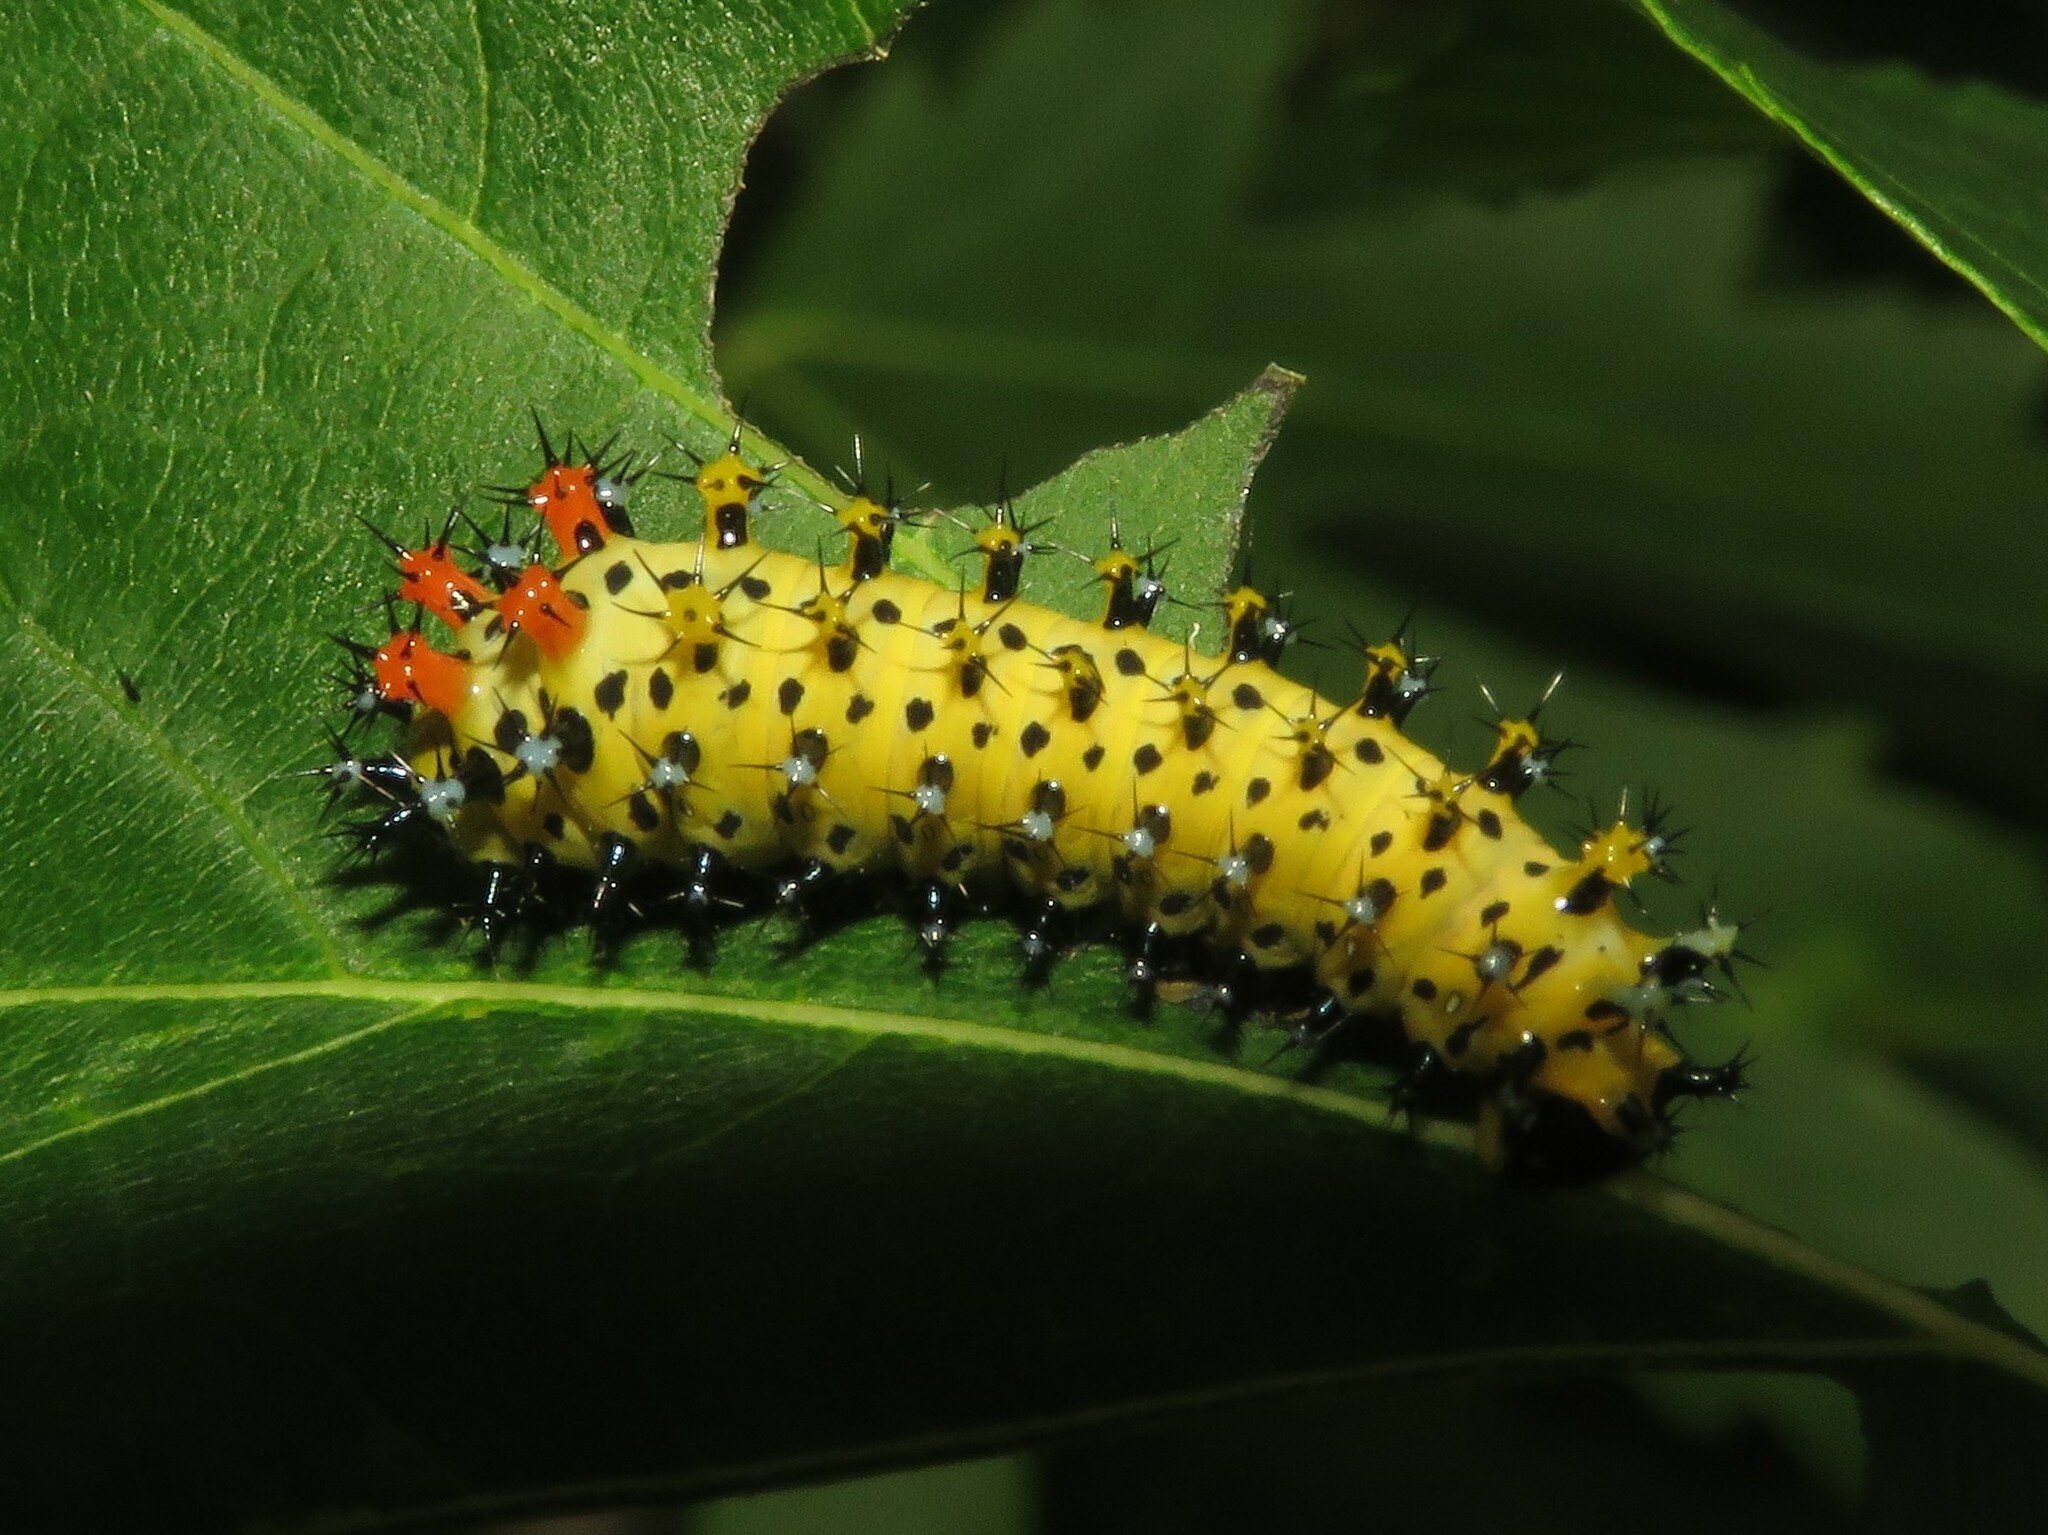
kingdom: Animalia
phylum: Arthropoda
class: Insecta
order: Lepidoptera
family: Saturniidae
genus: Hyalophora
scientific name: Hyalophora cecropia
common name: Cecropia silkmoth
